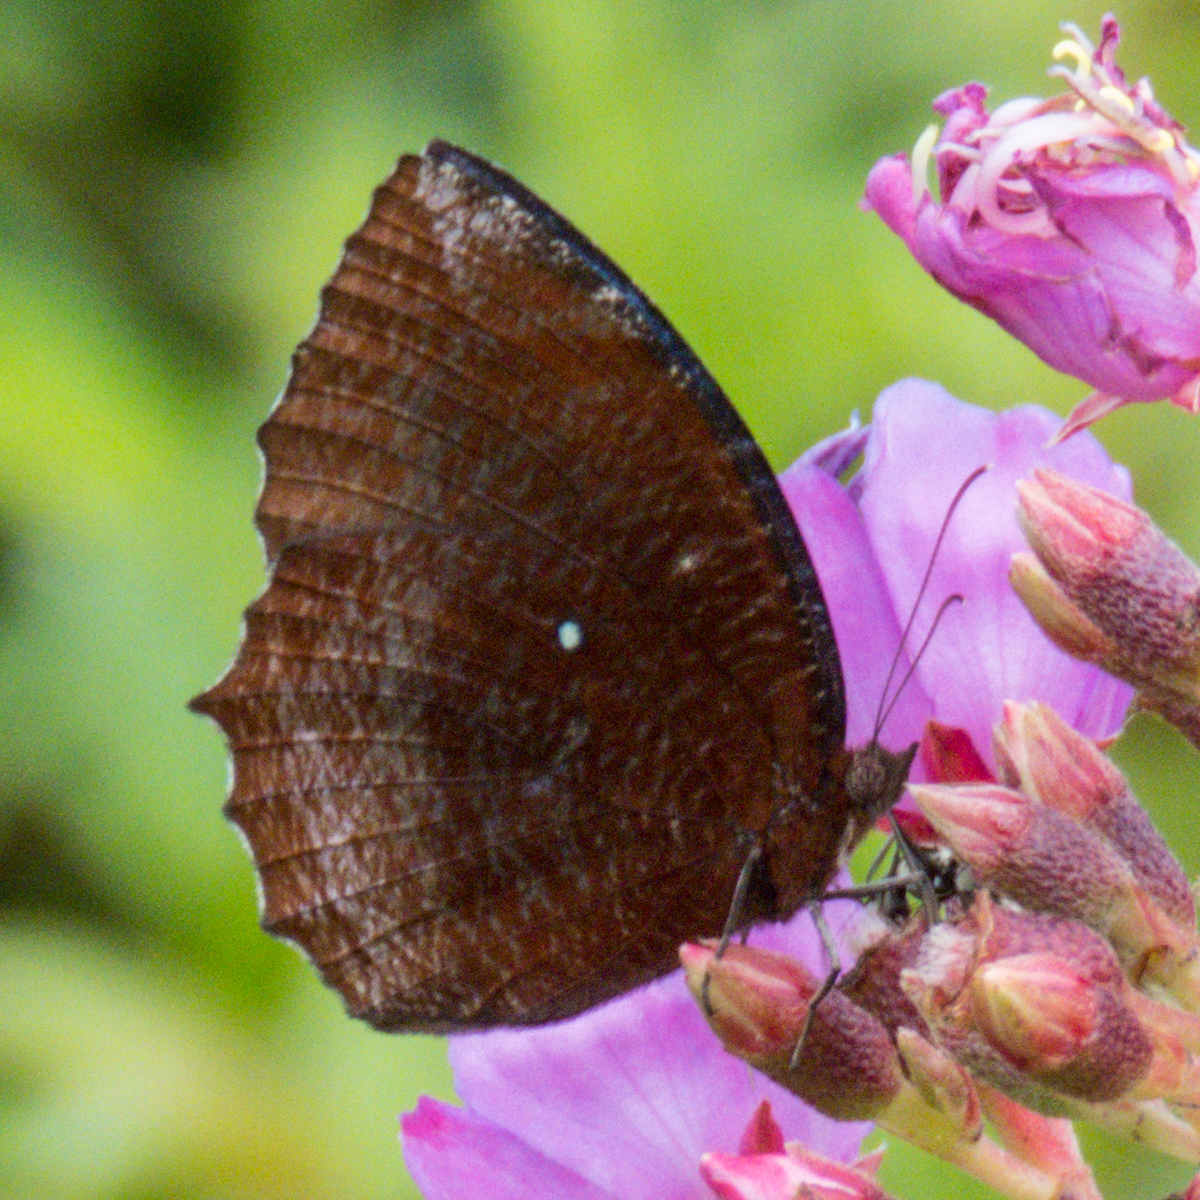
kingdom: Animalia
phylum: Arthropoda
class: Insecta
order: Lepidoptera
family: Nymphalidae
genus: Elymnias
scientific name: Elymnias hypermnestra
